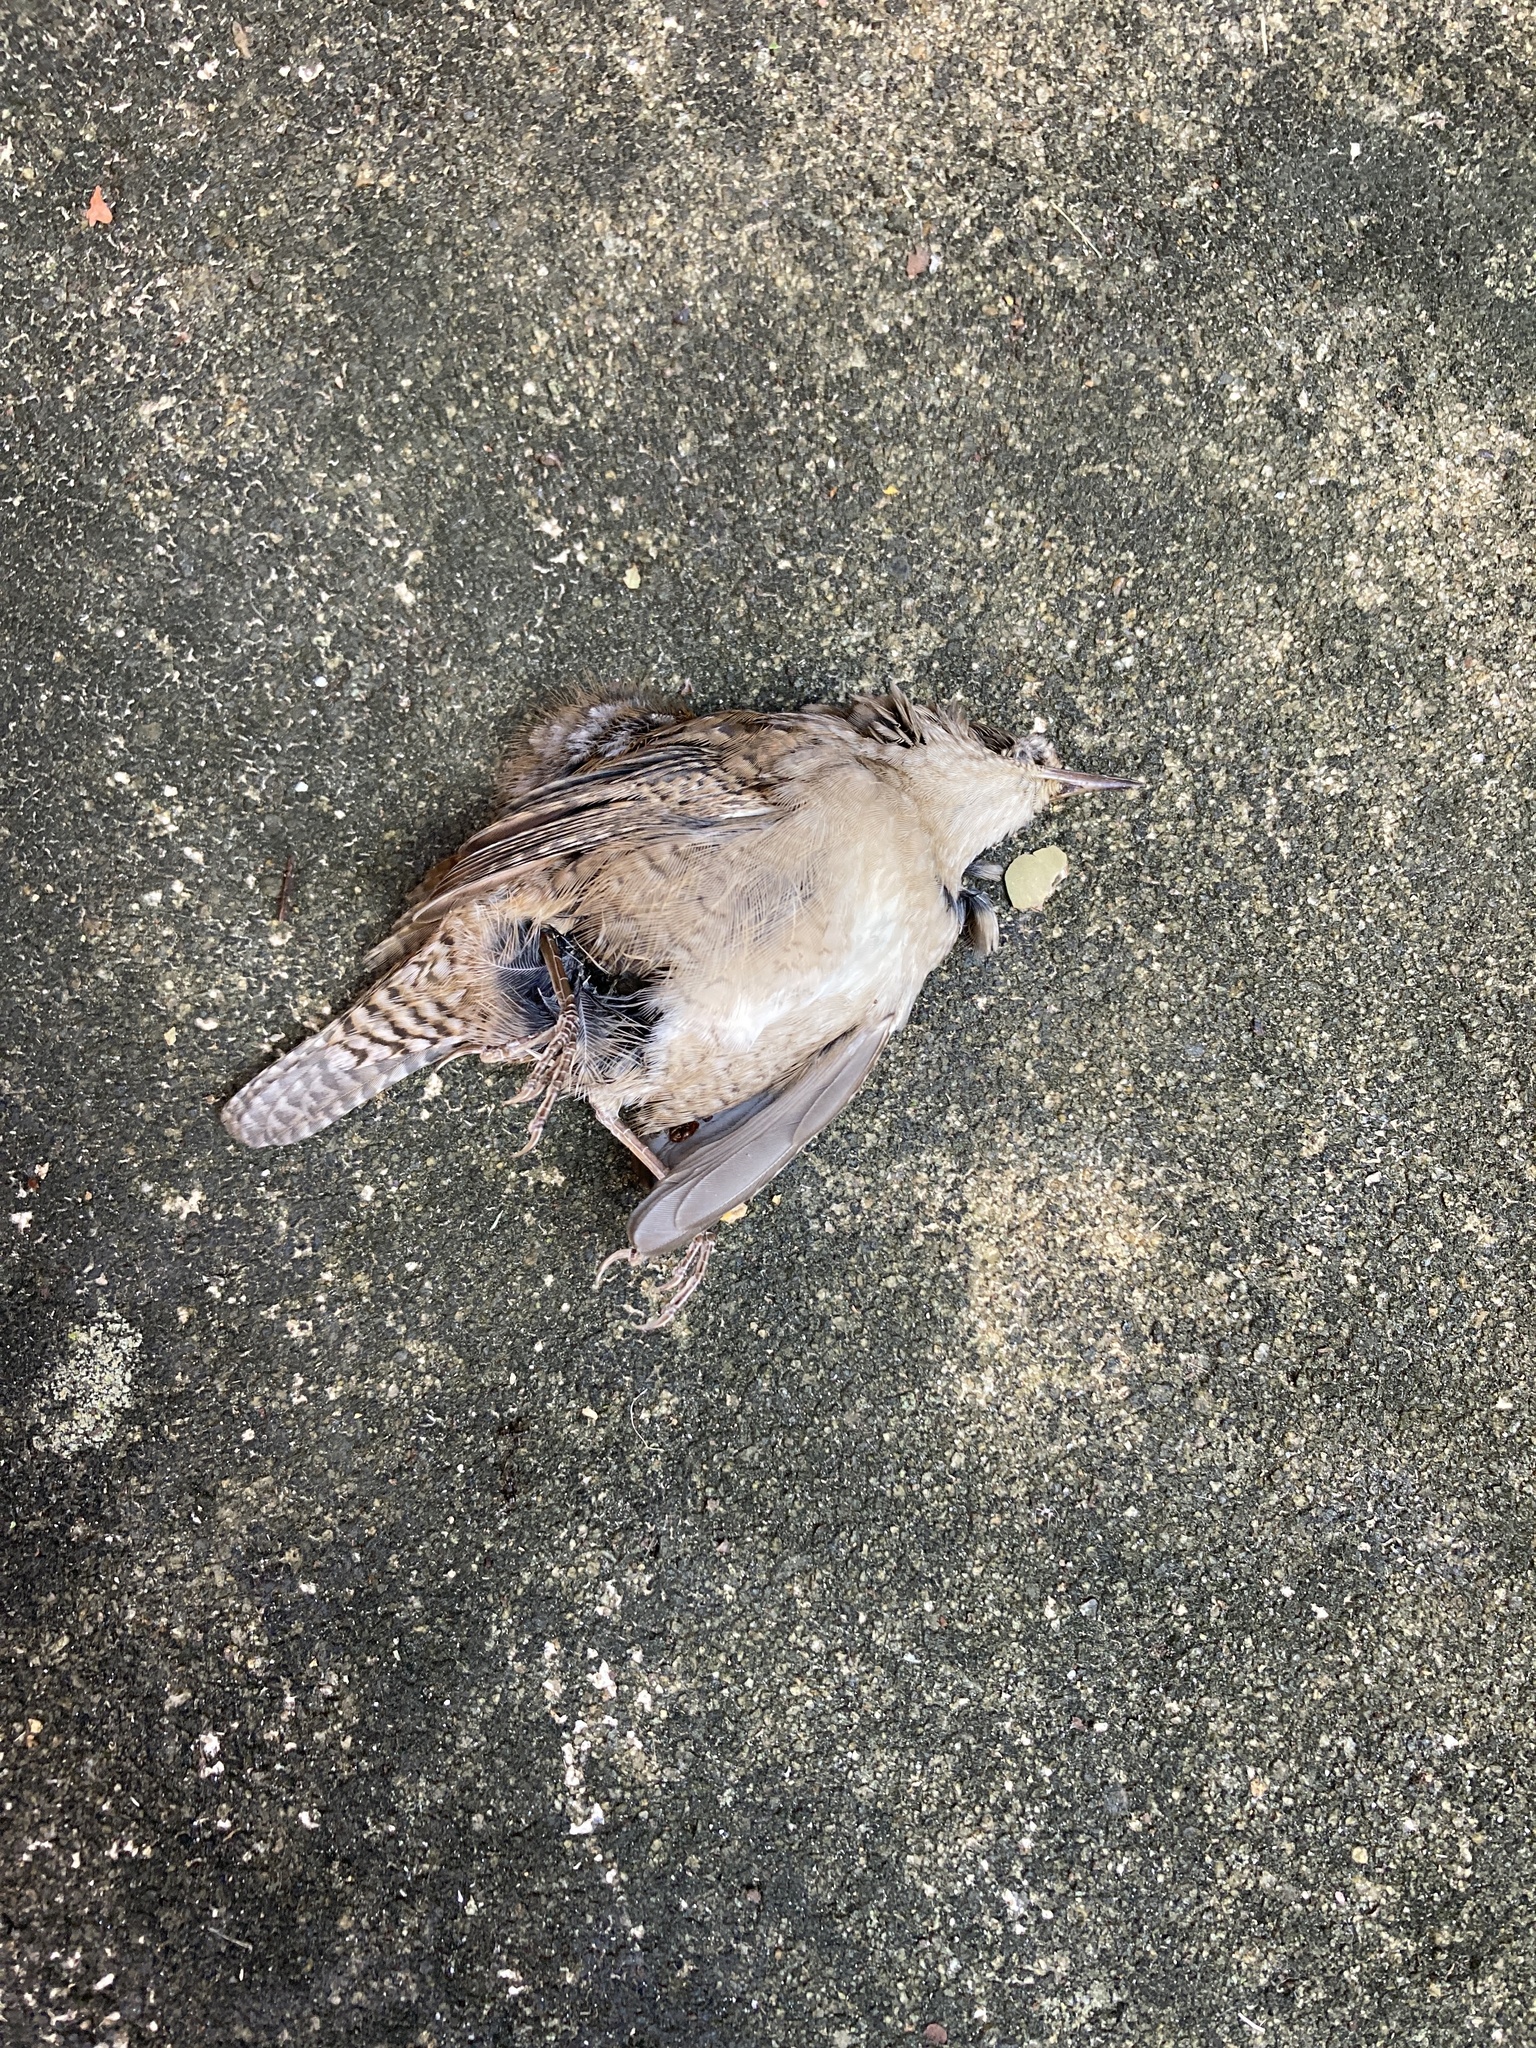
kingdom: Animalia
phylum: Chordata
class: Aves
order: Passeriformes
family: Troglodytidae
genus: Troglodytes
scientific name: Troglodytes aedon
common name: House wren
